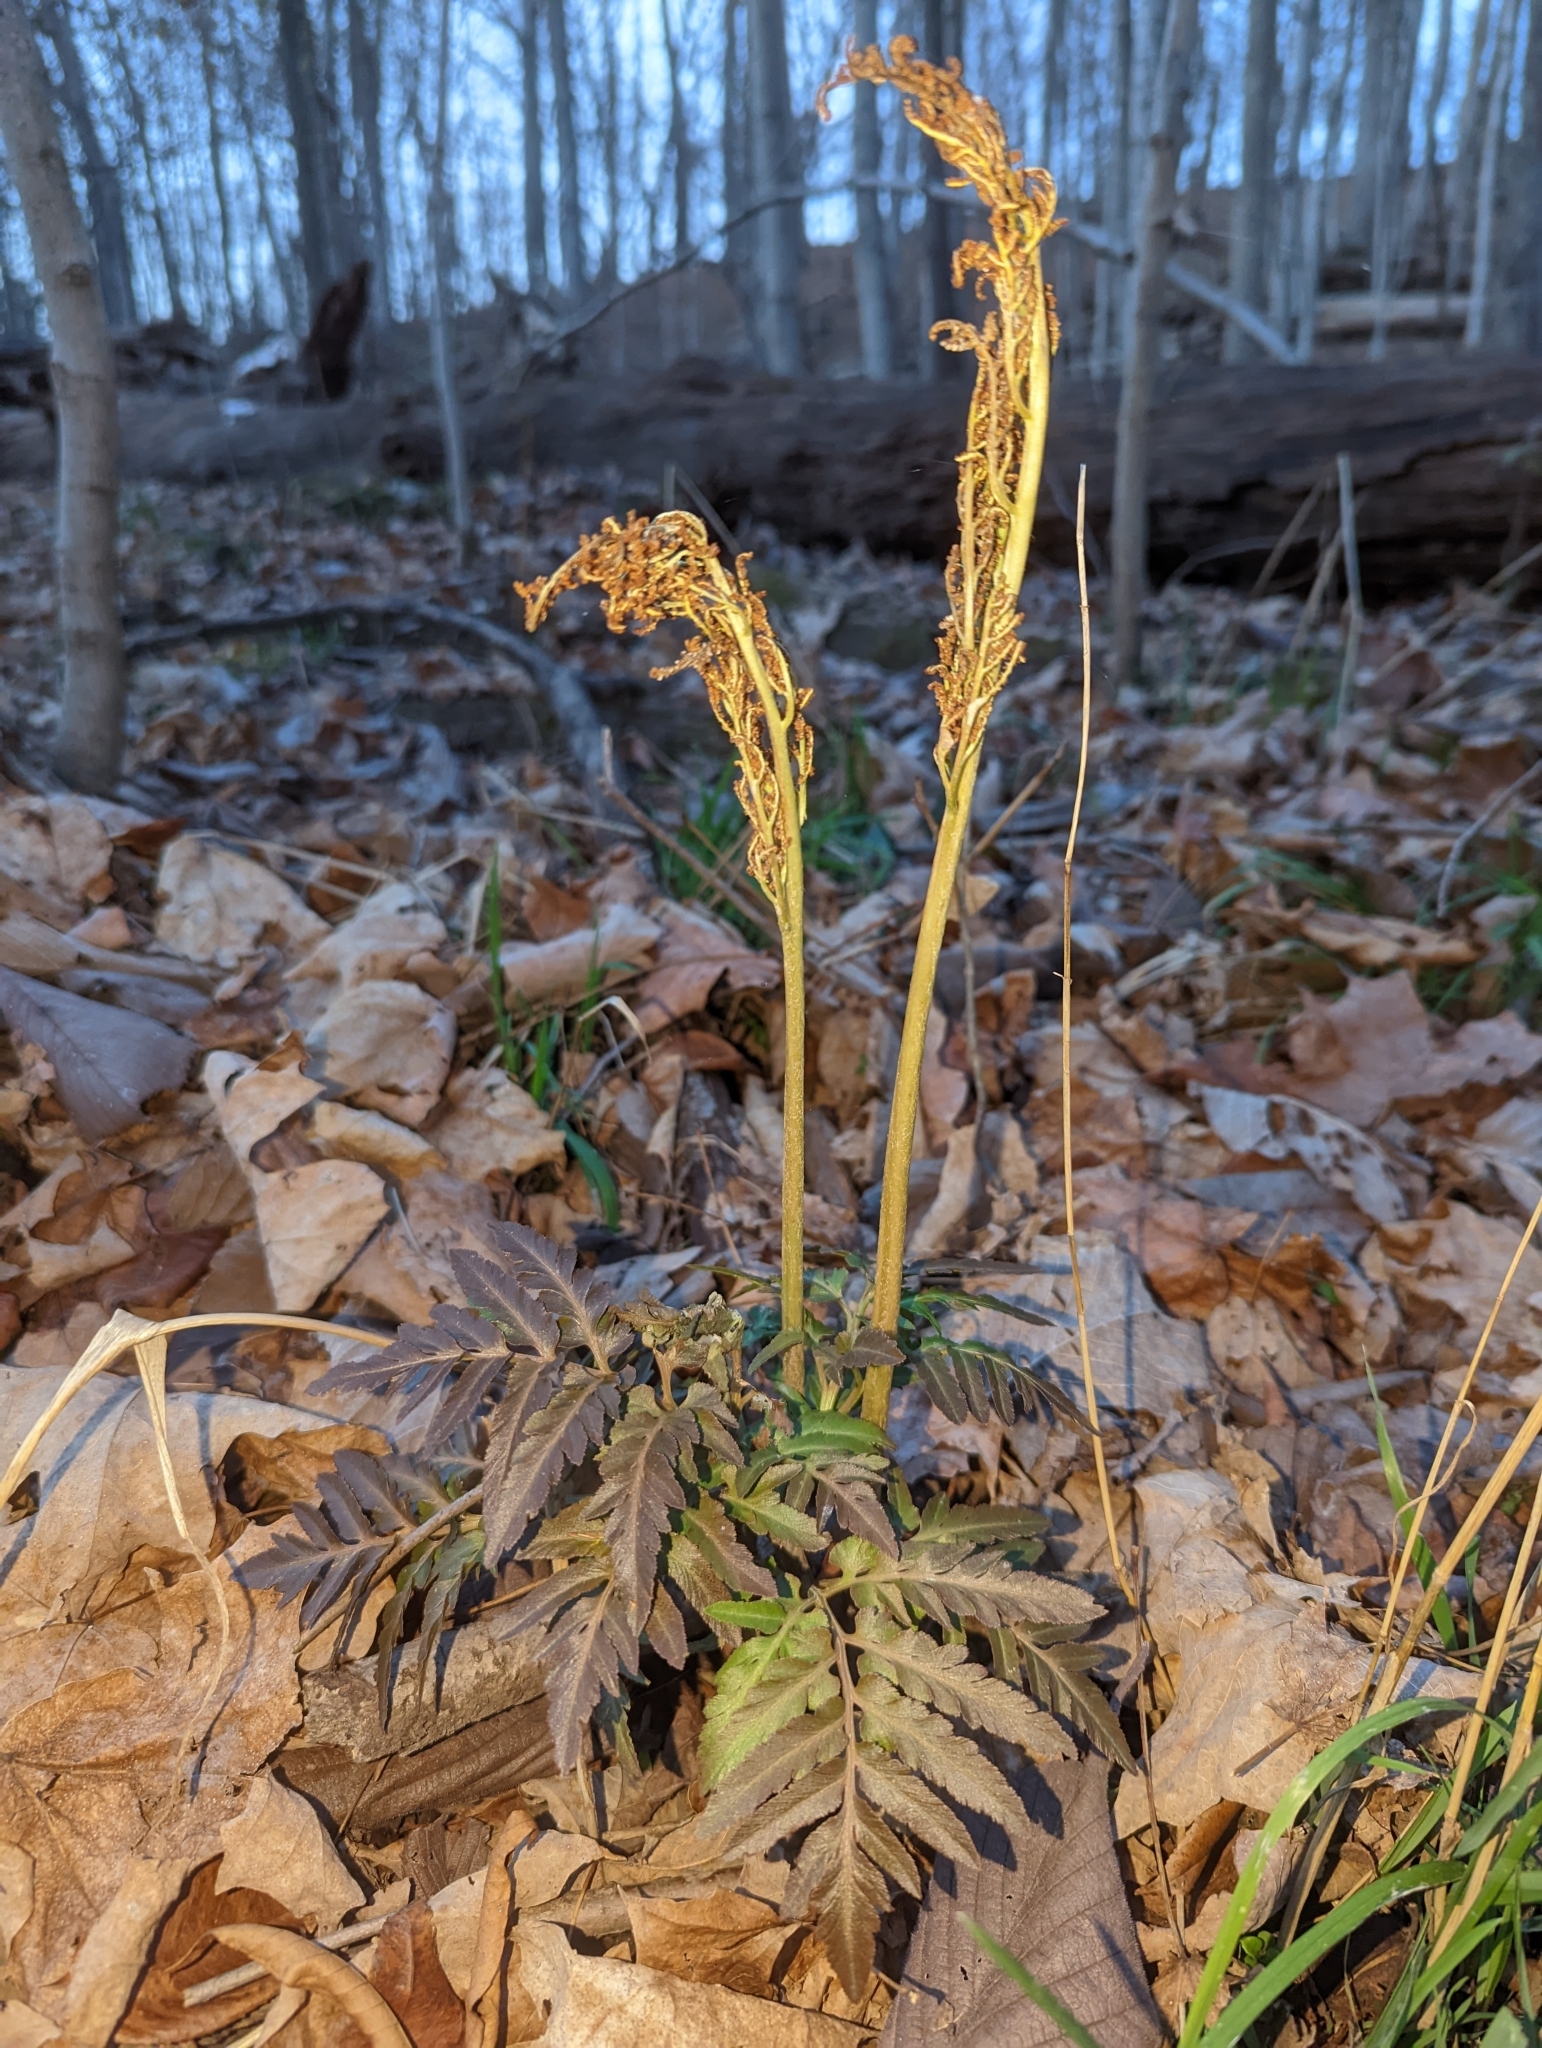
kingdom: Plantae
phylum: Tracheophyta
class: Polypodiopsida
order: Ophioglossales
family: Ophioglossaceae
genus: Sceptridium
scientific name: Sceptridium dissectum
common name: Cut-leaved grapefern
